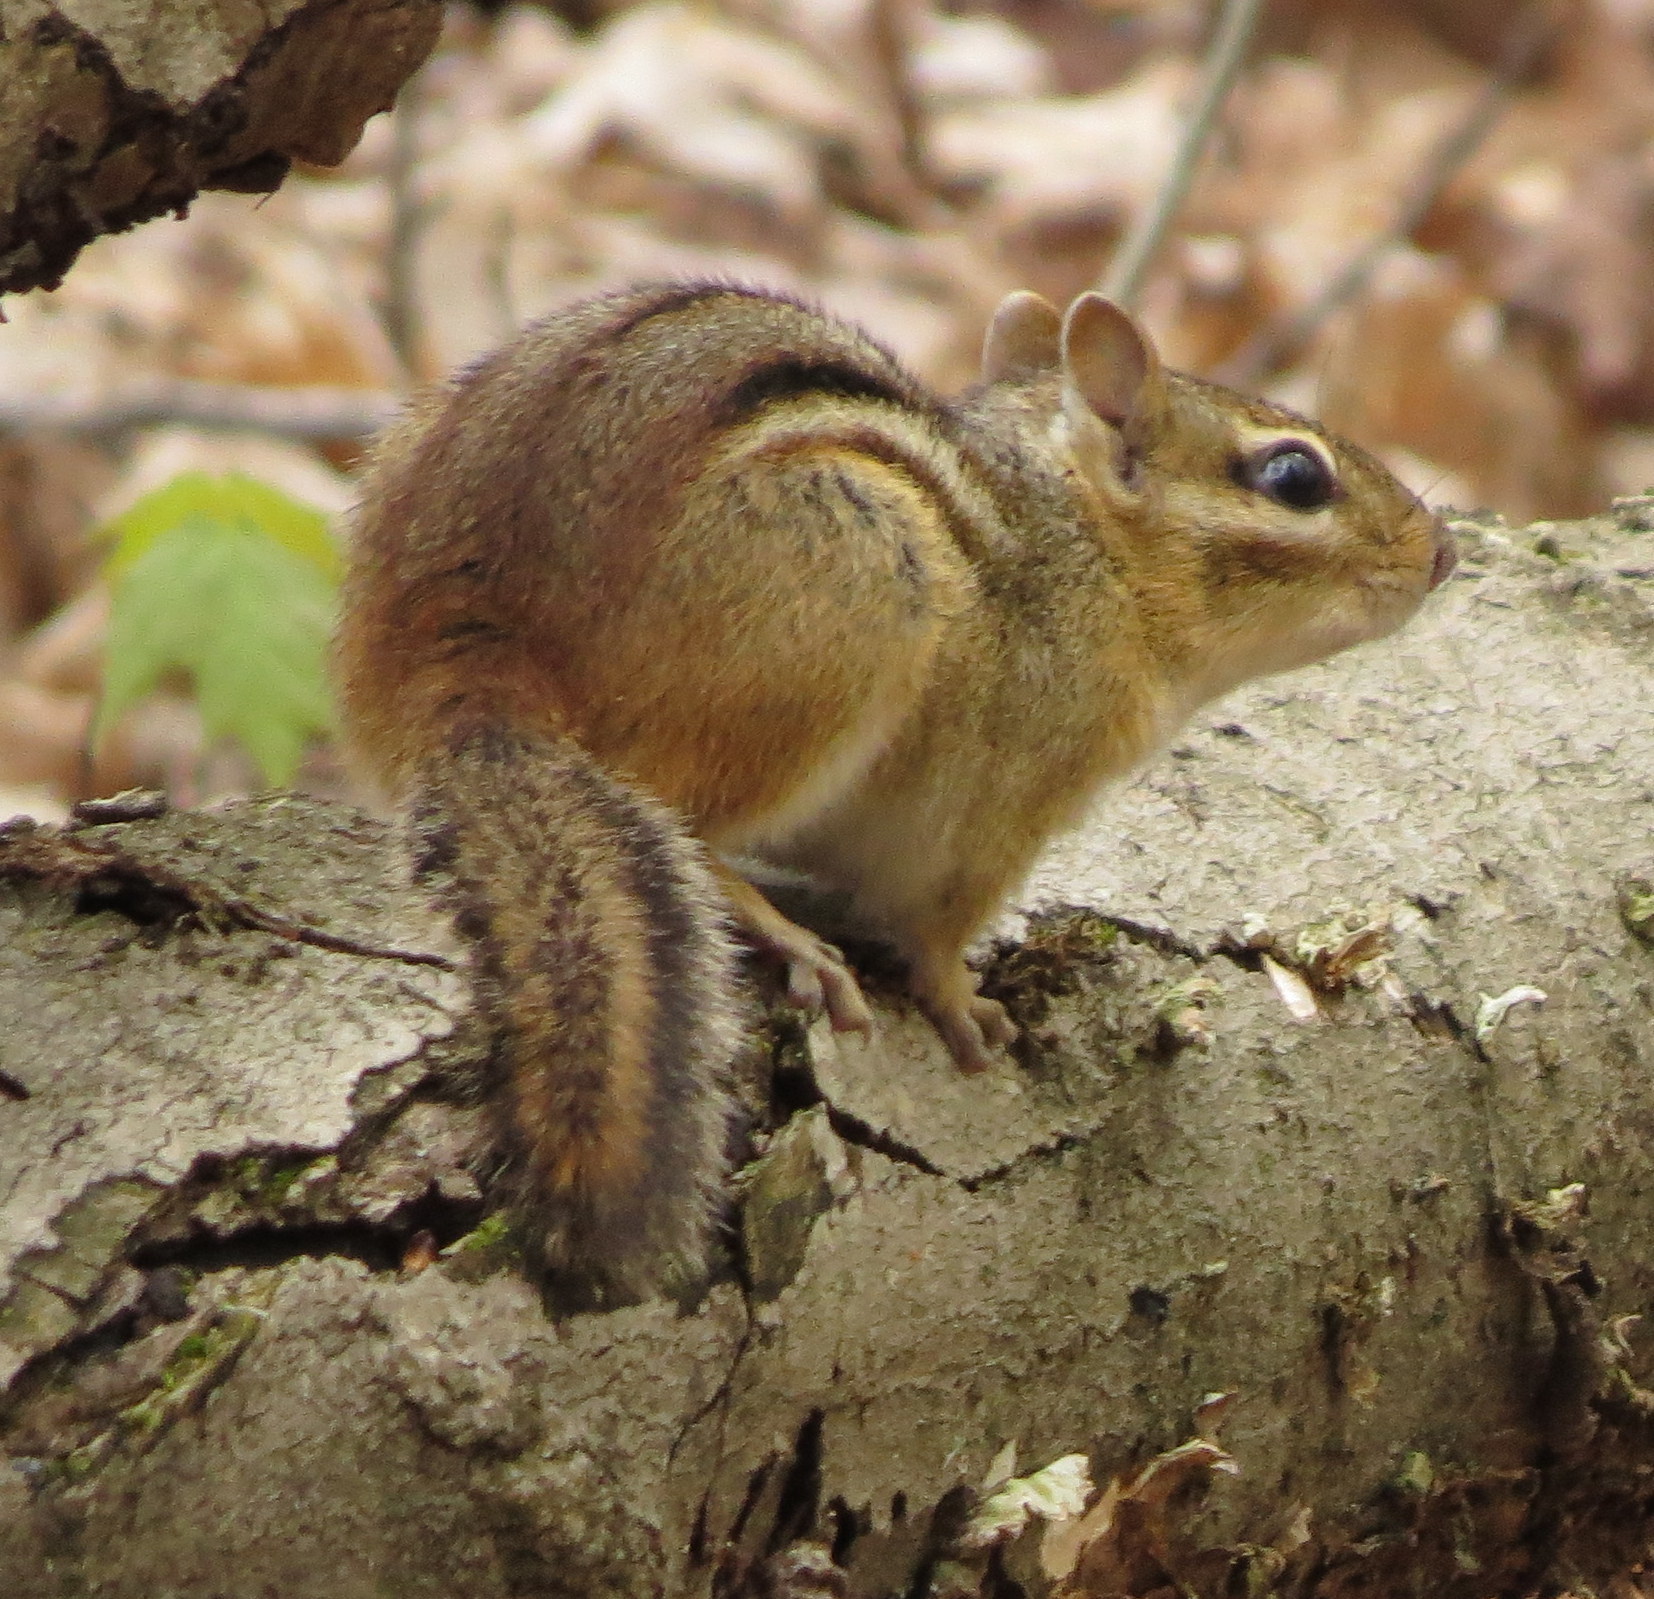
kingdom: Animalia
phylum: Chordata
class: Mammalia
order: Rodentia
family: Sciuridae
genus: Tamias
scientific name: Tamias striatus
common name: Eastern chipmunk
